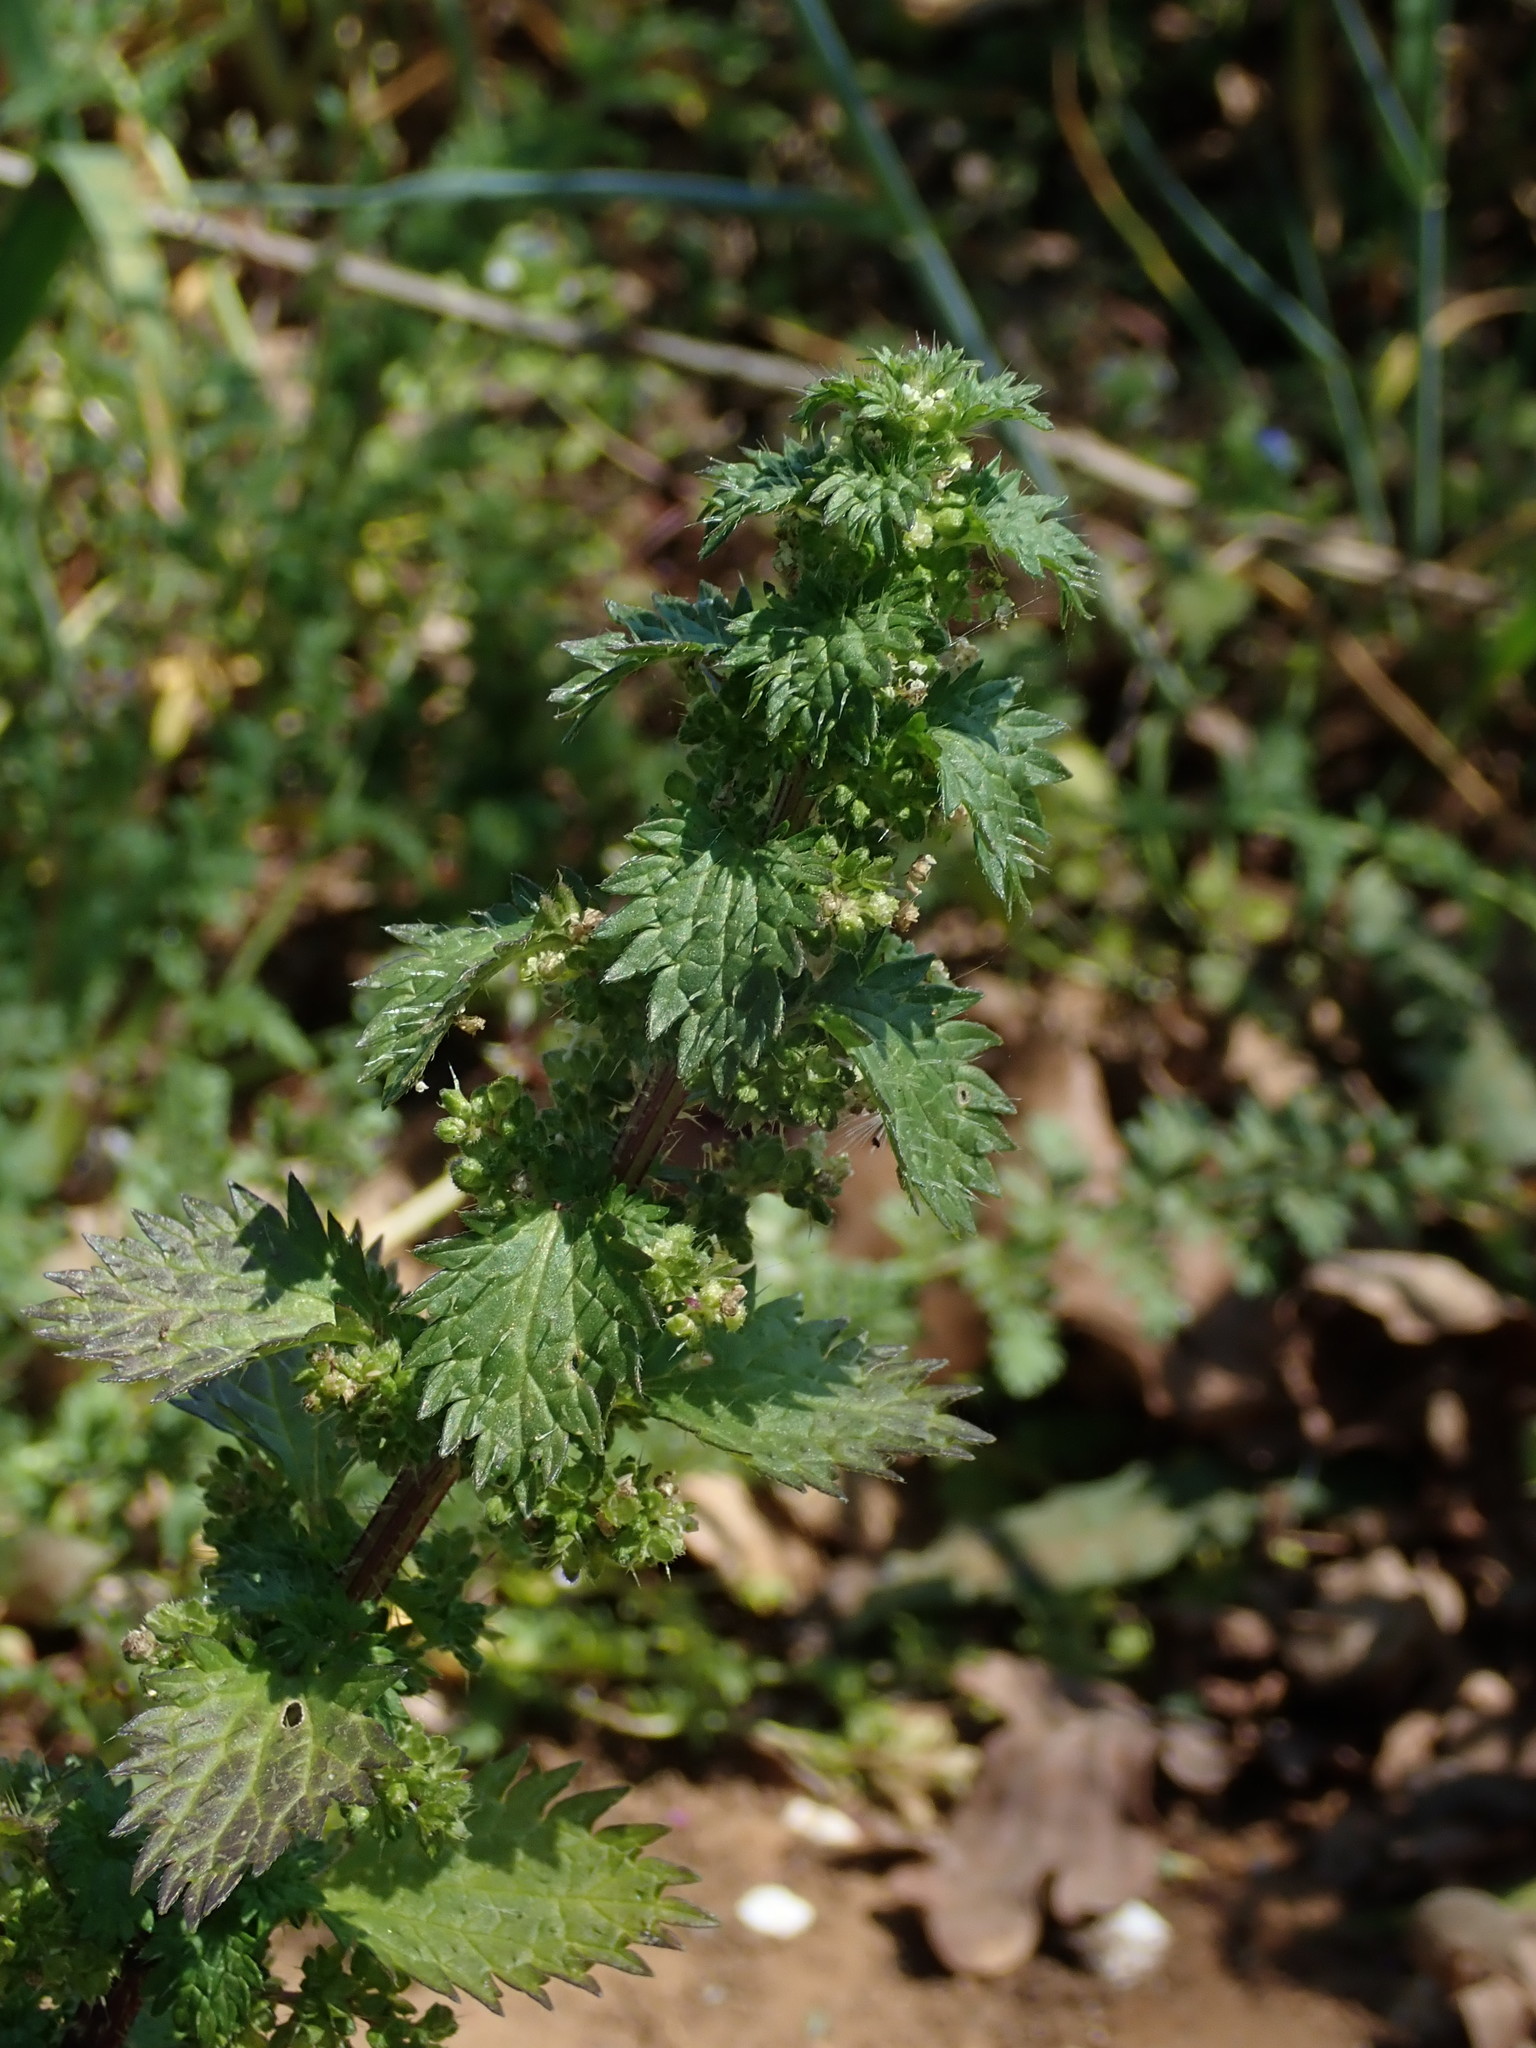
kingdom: Plantae
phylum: Tracheophyta
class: Magnoliopsida
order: Rosales
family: Urticaceae
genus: Urtica
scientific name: Urtica urens
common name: Dwarf nettle
